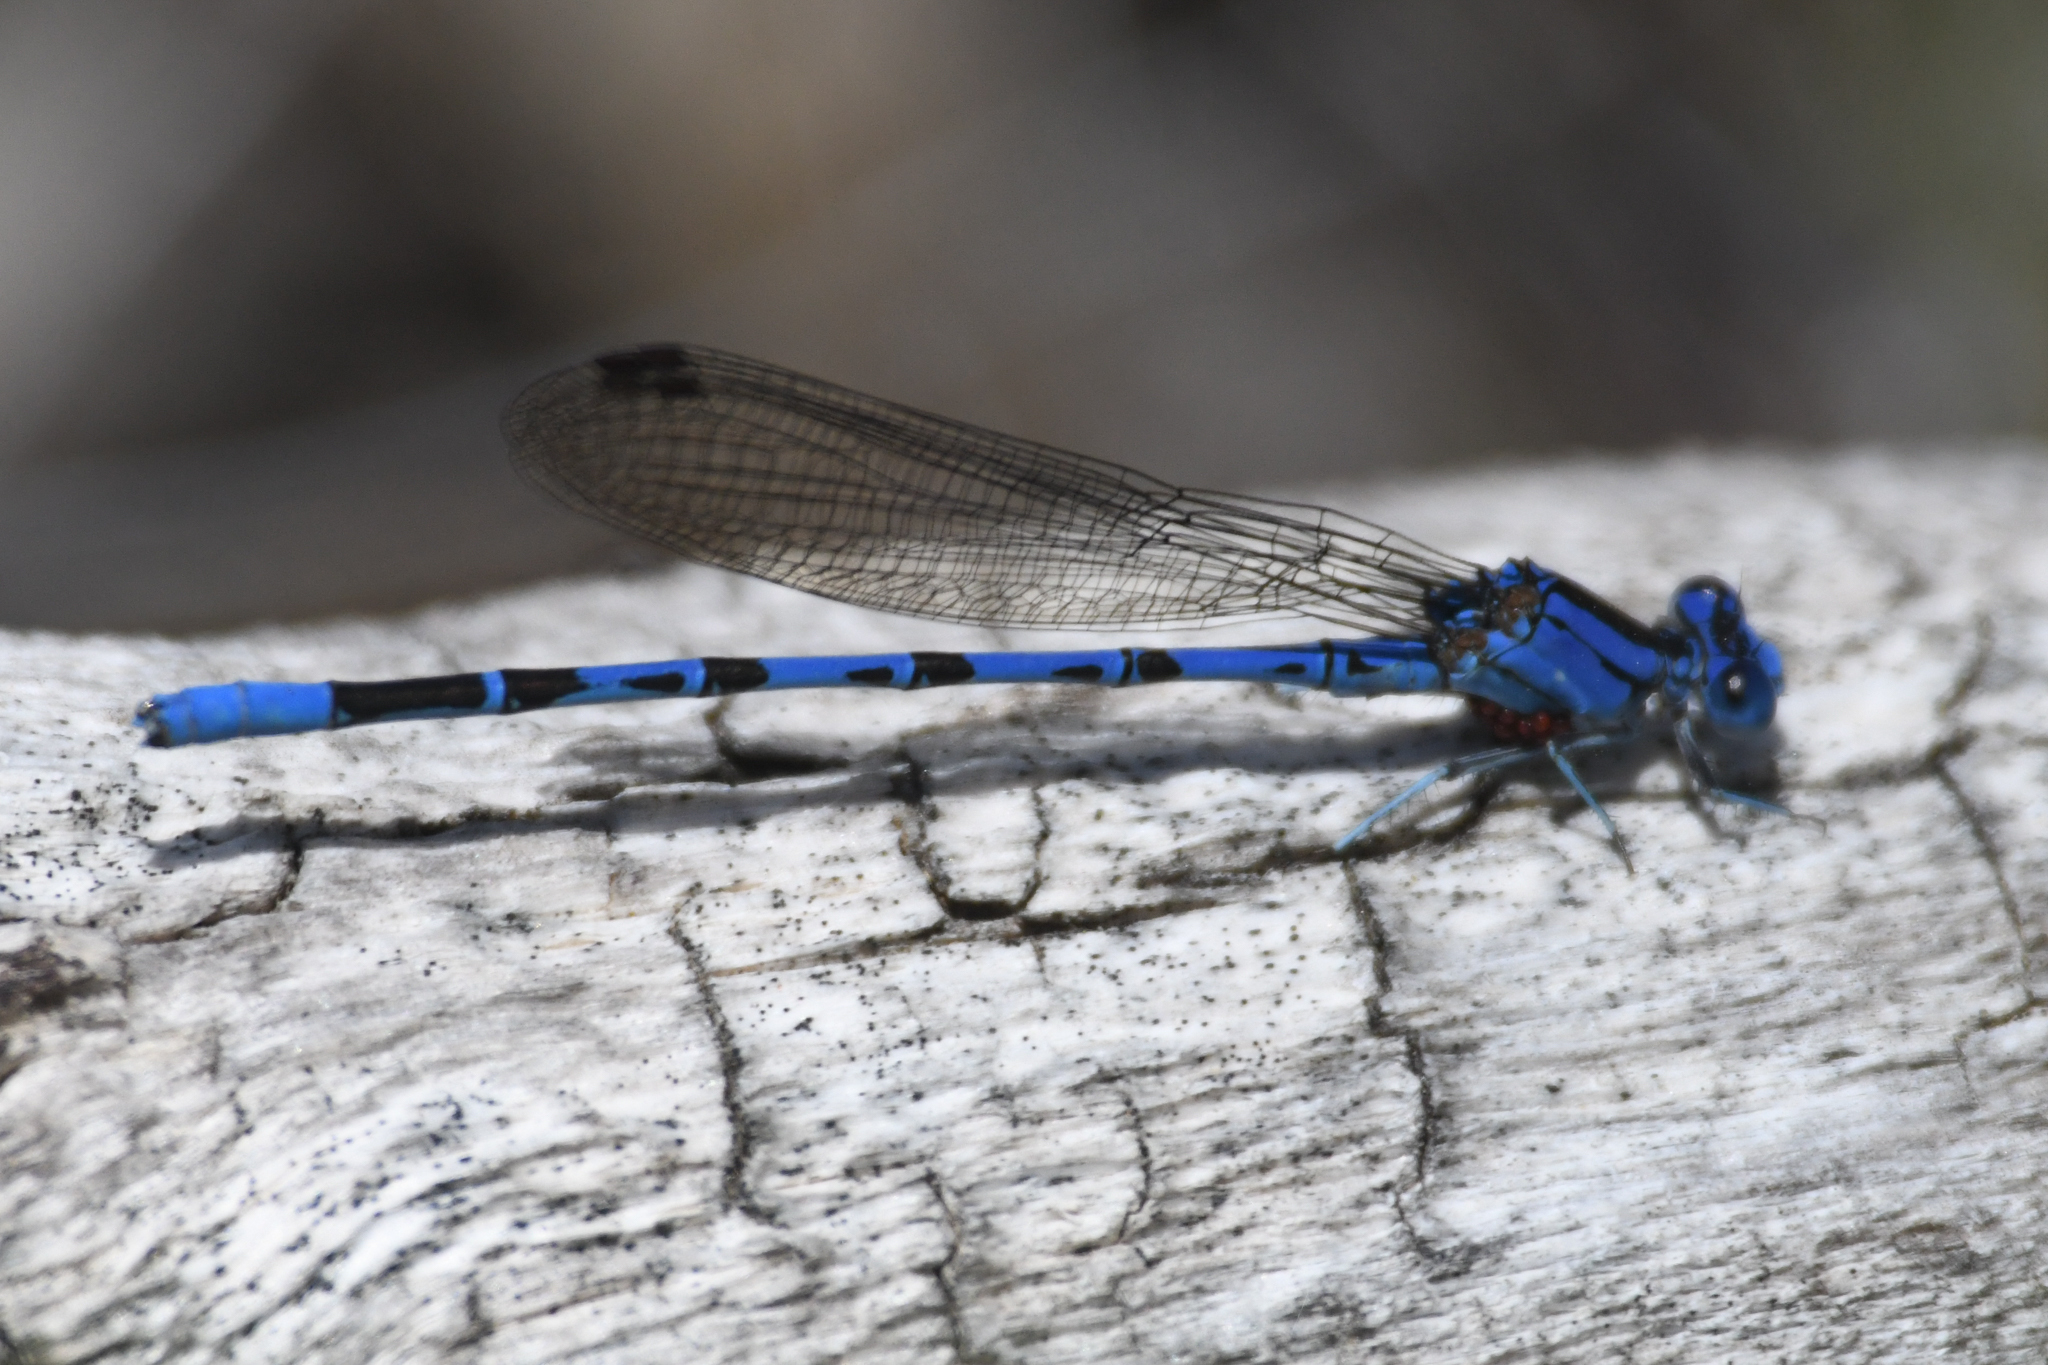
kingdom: Animalia
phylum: Arthropoda
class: Insecta
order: Odonata
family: Coenagrionidae
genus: Argia
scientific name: Argia vivida
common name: Vivid dancer
